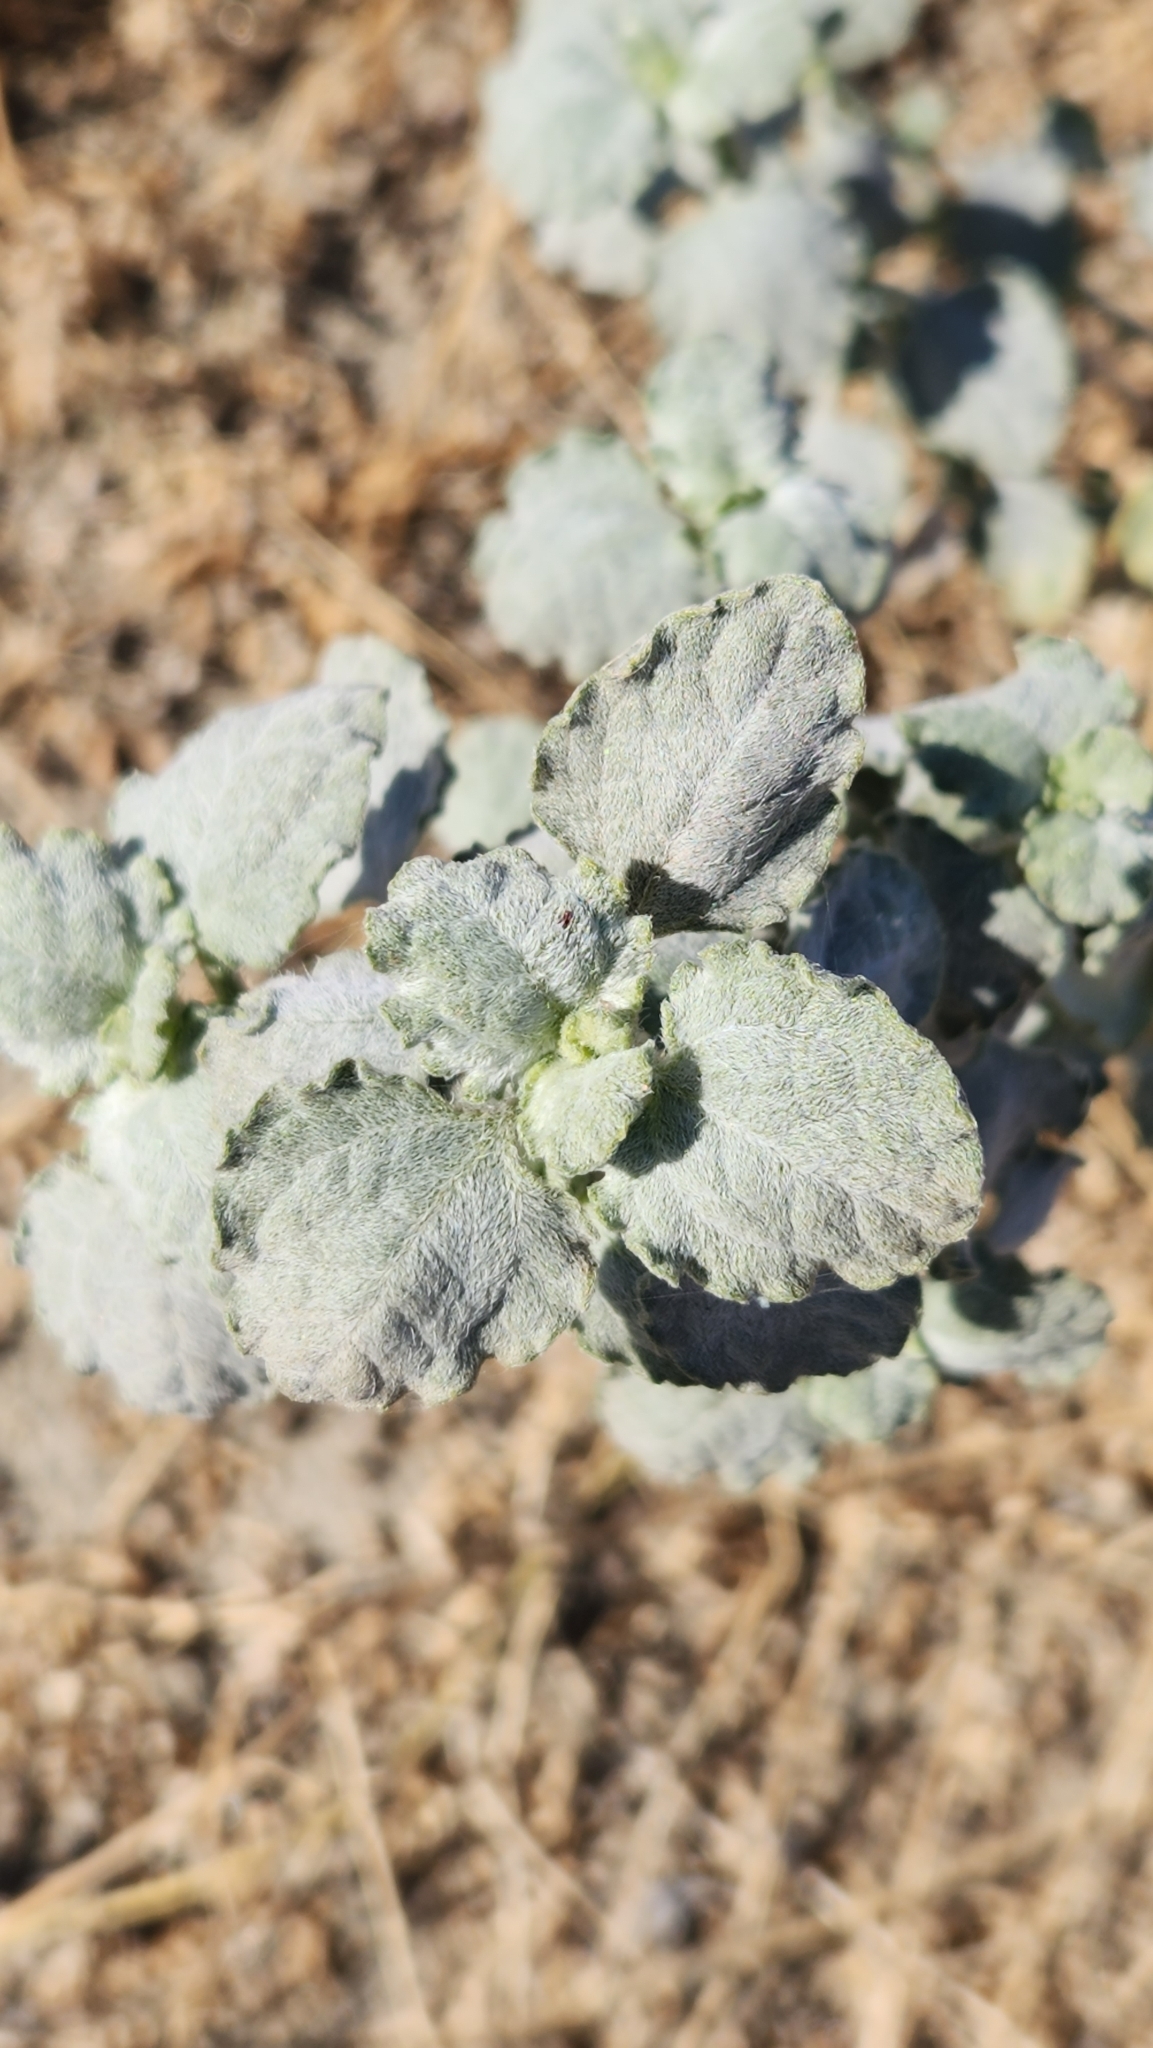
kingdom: Plantae
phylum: Tracheophyta
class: Magnoliopsida
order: Asterales
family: Asteraceae
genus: Dicoria
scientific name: Dicoria canescens
